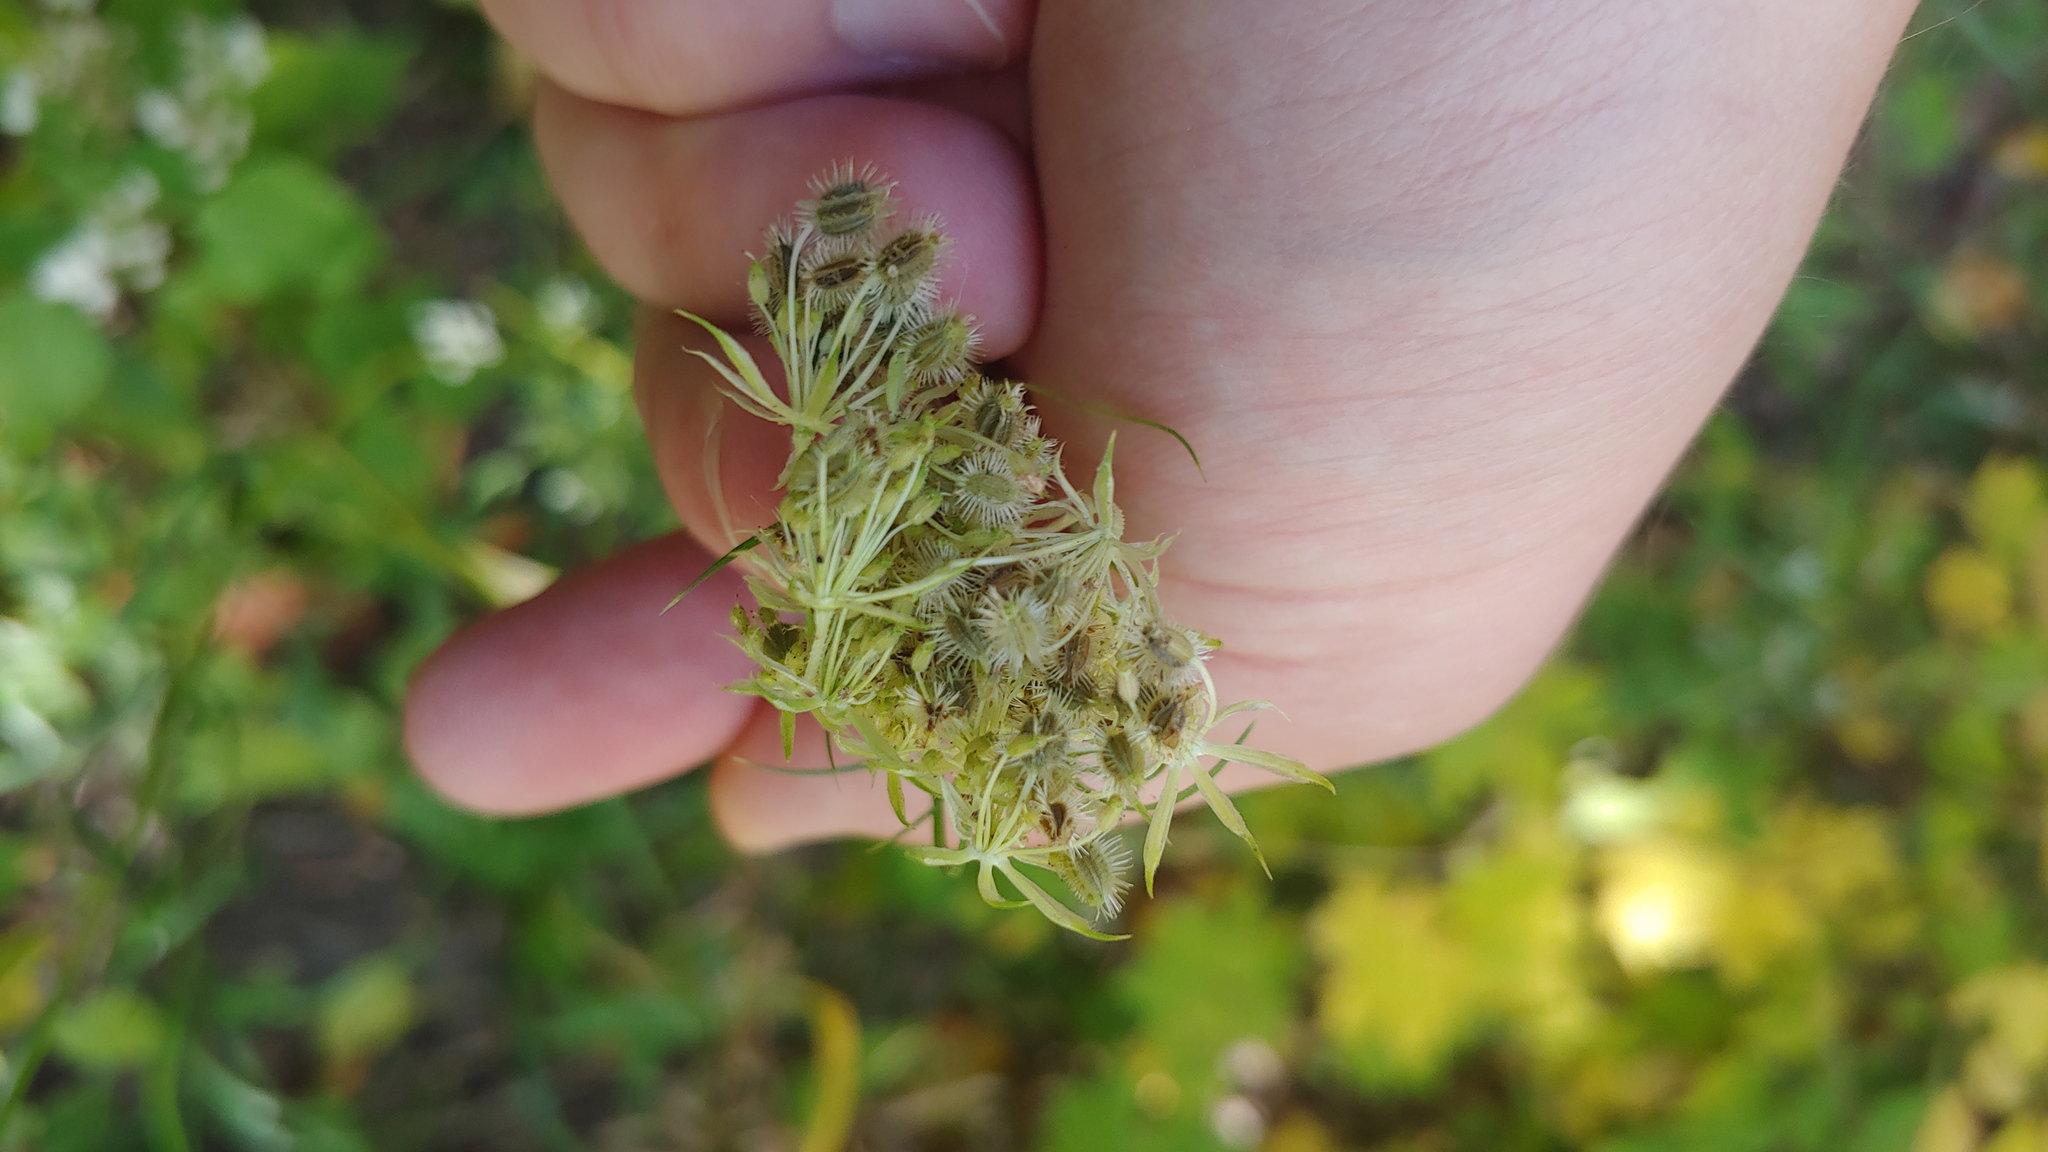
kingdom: Plantae
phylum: Tracheophyta
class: Magnoliopsida
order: Apiales
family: Apiaceae
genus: Daucus
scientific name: Daucus carota
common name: Wild carrot
